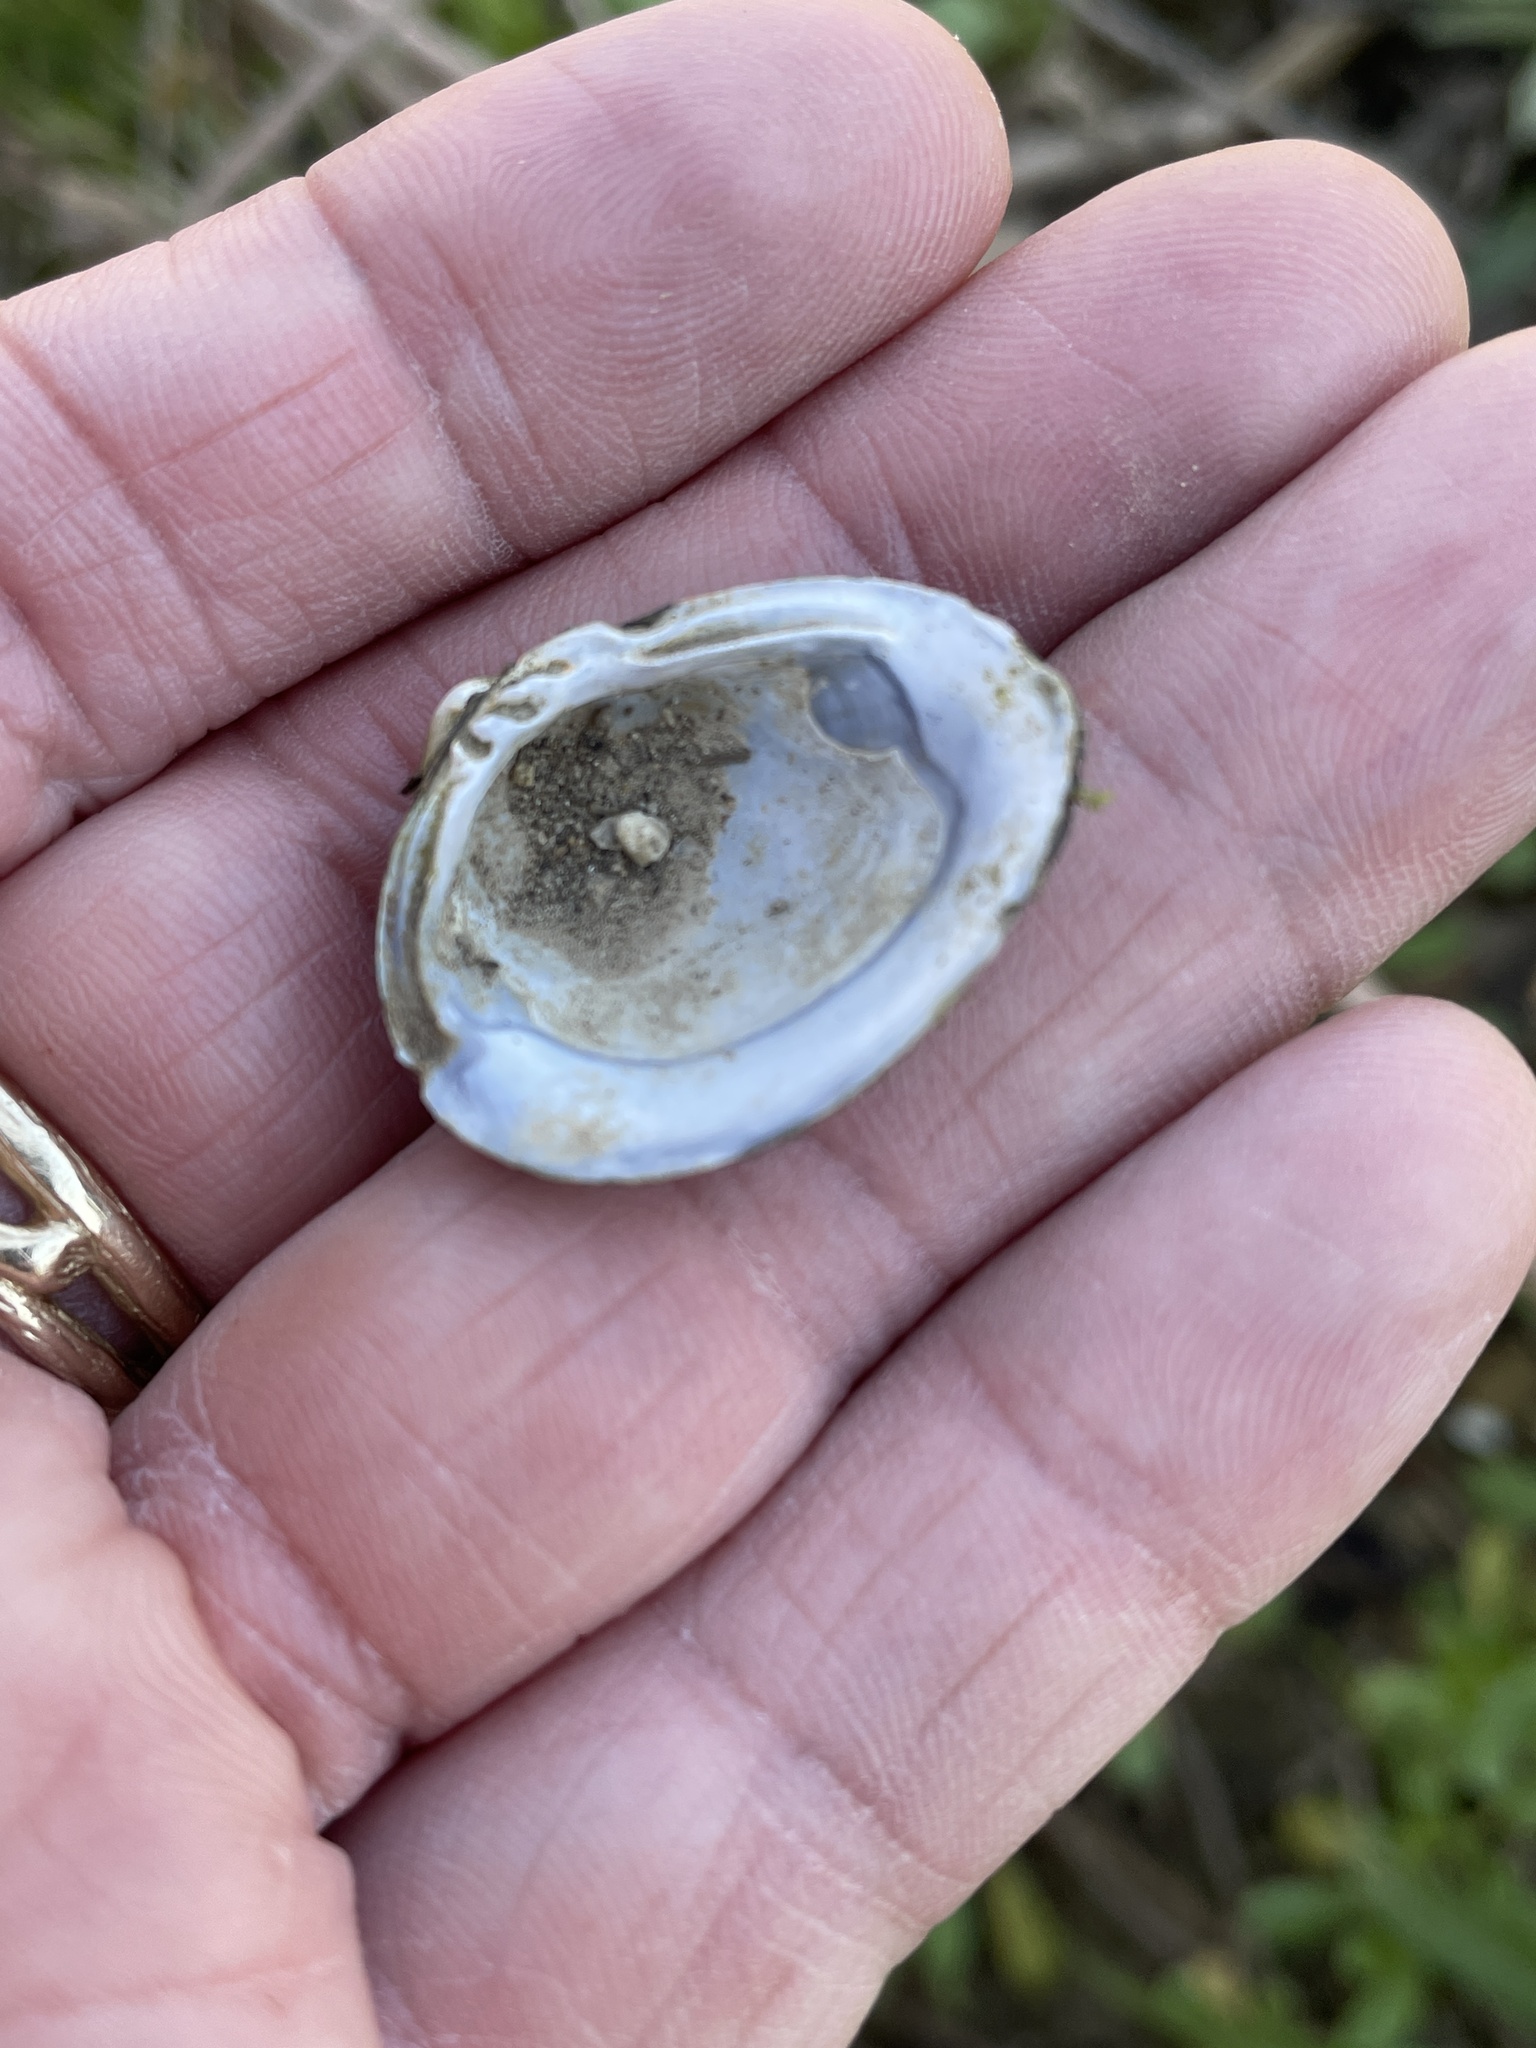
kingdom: Animalia
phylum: Mollusca
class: Bivalvia
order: Venerida
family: Cyrenidae
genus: Corbicula
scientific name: Corbicula fluminea
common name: Asian clam
